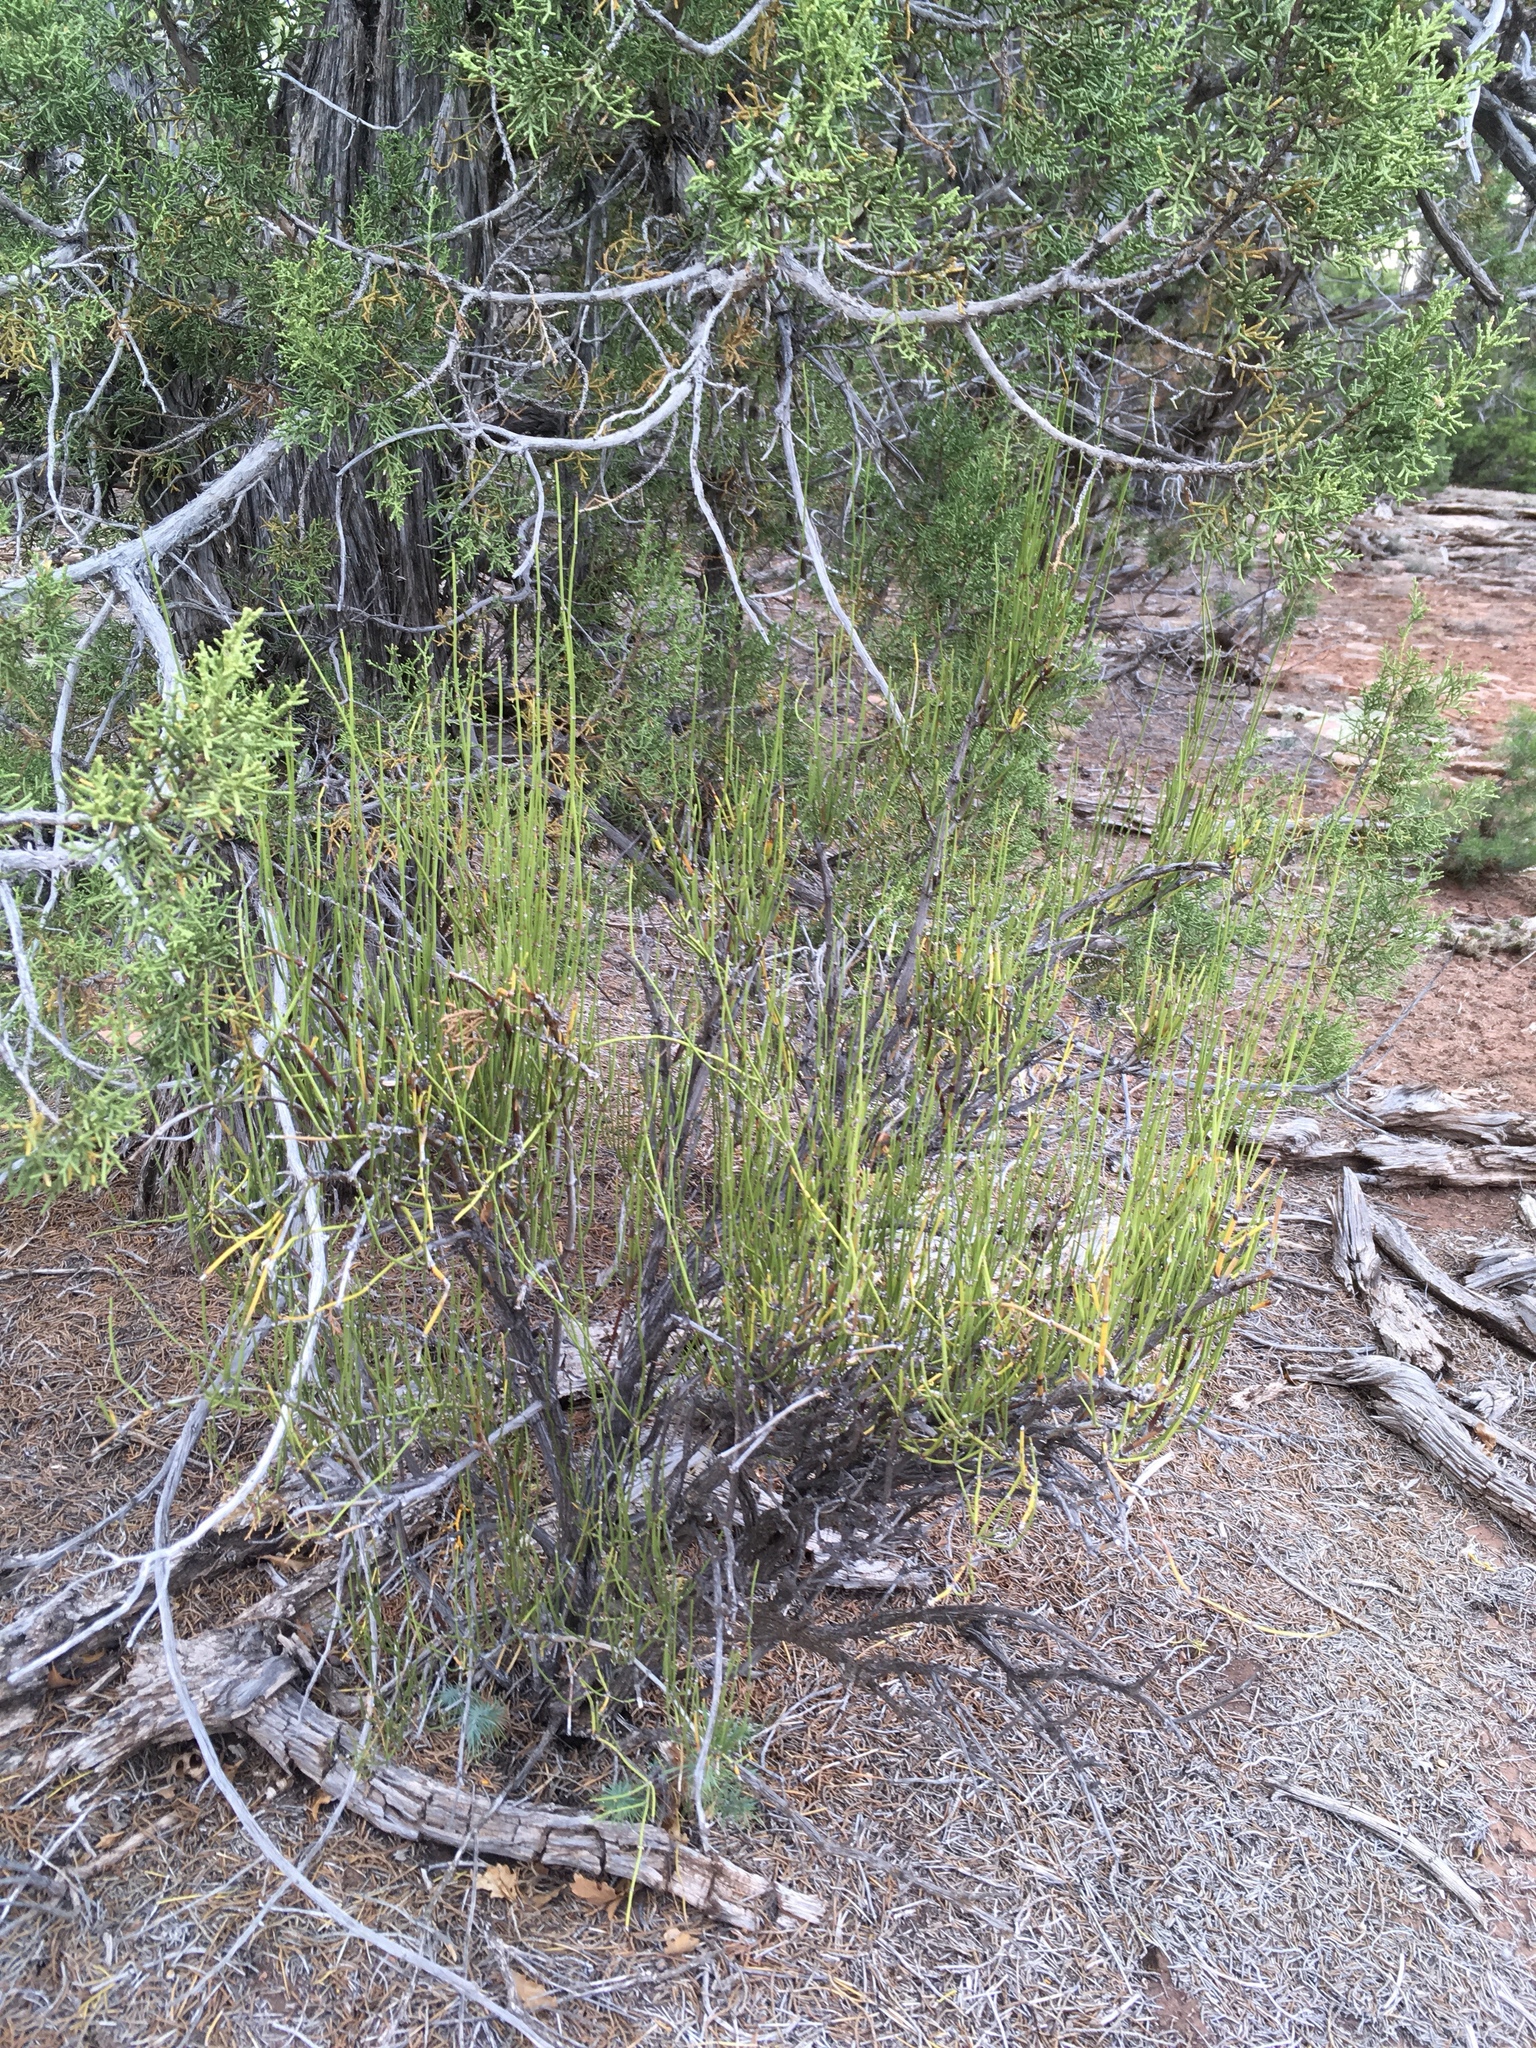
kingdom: Plantae
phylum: Tracheophyta
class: Gnetopsida
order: Ephedrales
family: Ephedraceae
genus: Ephedra
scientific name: Ephedra viridis
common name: Green ephedra
